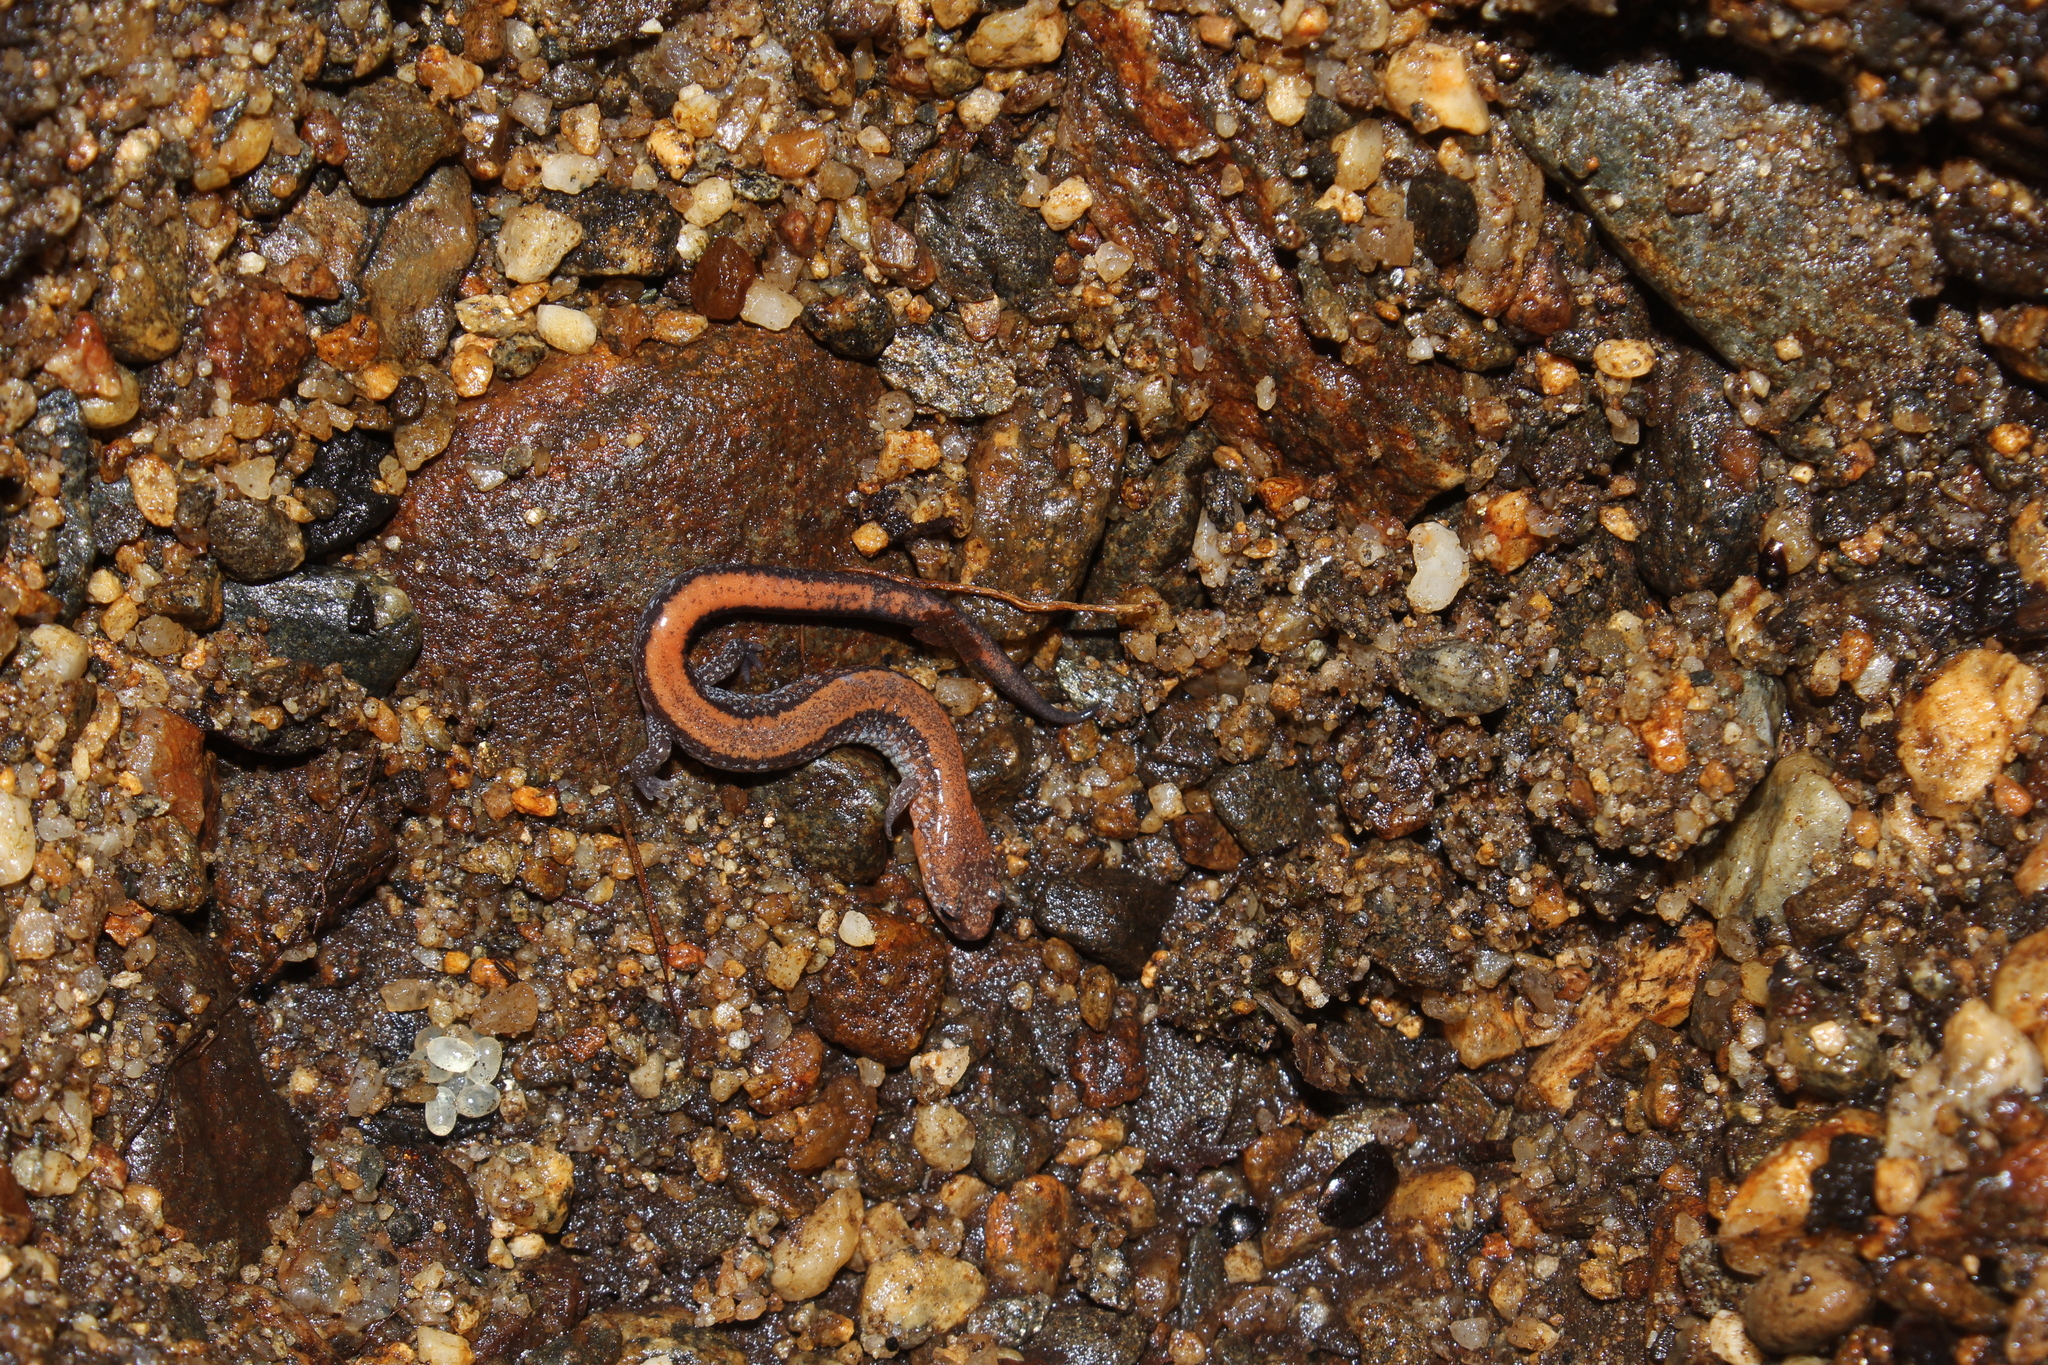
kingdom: Animalia
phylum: Chordata
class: Amphibia
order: Caudata
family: Plethodontidae
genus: Plethodon
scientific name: Plethodon cinereus
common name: Redback salamander
